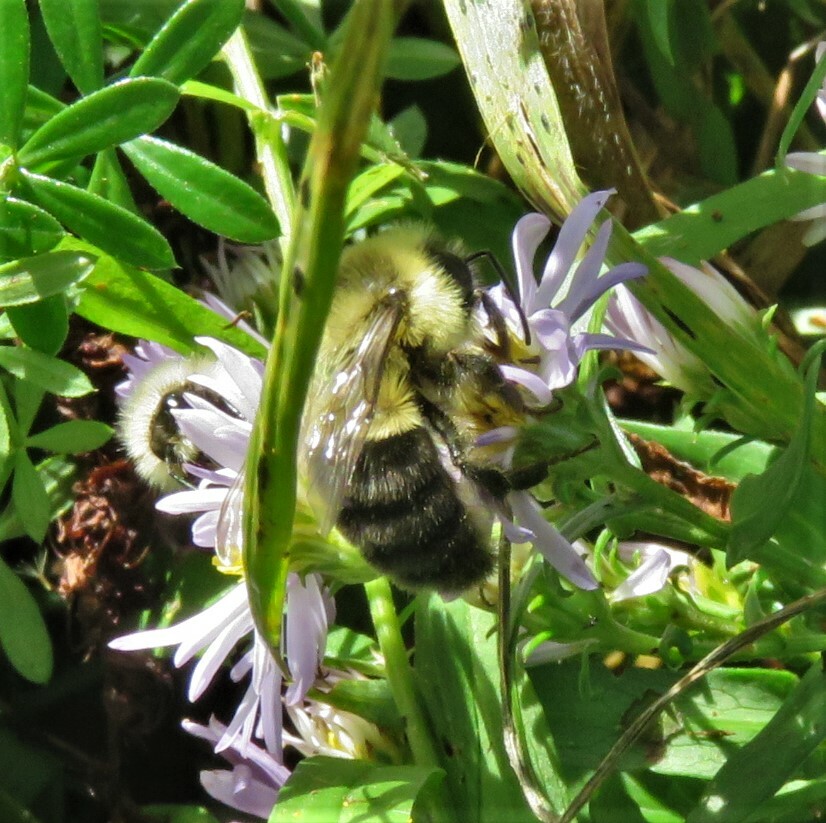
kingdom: Animalia
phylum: Arthropoda
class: Insecta
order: Hymenoptera
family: Apidae
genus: Bombus
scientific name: Bombus impatiens
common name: Common eastern bumble bee
